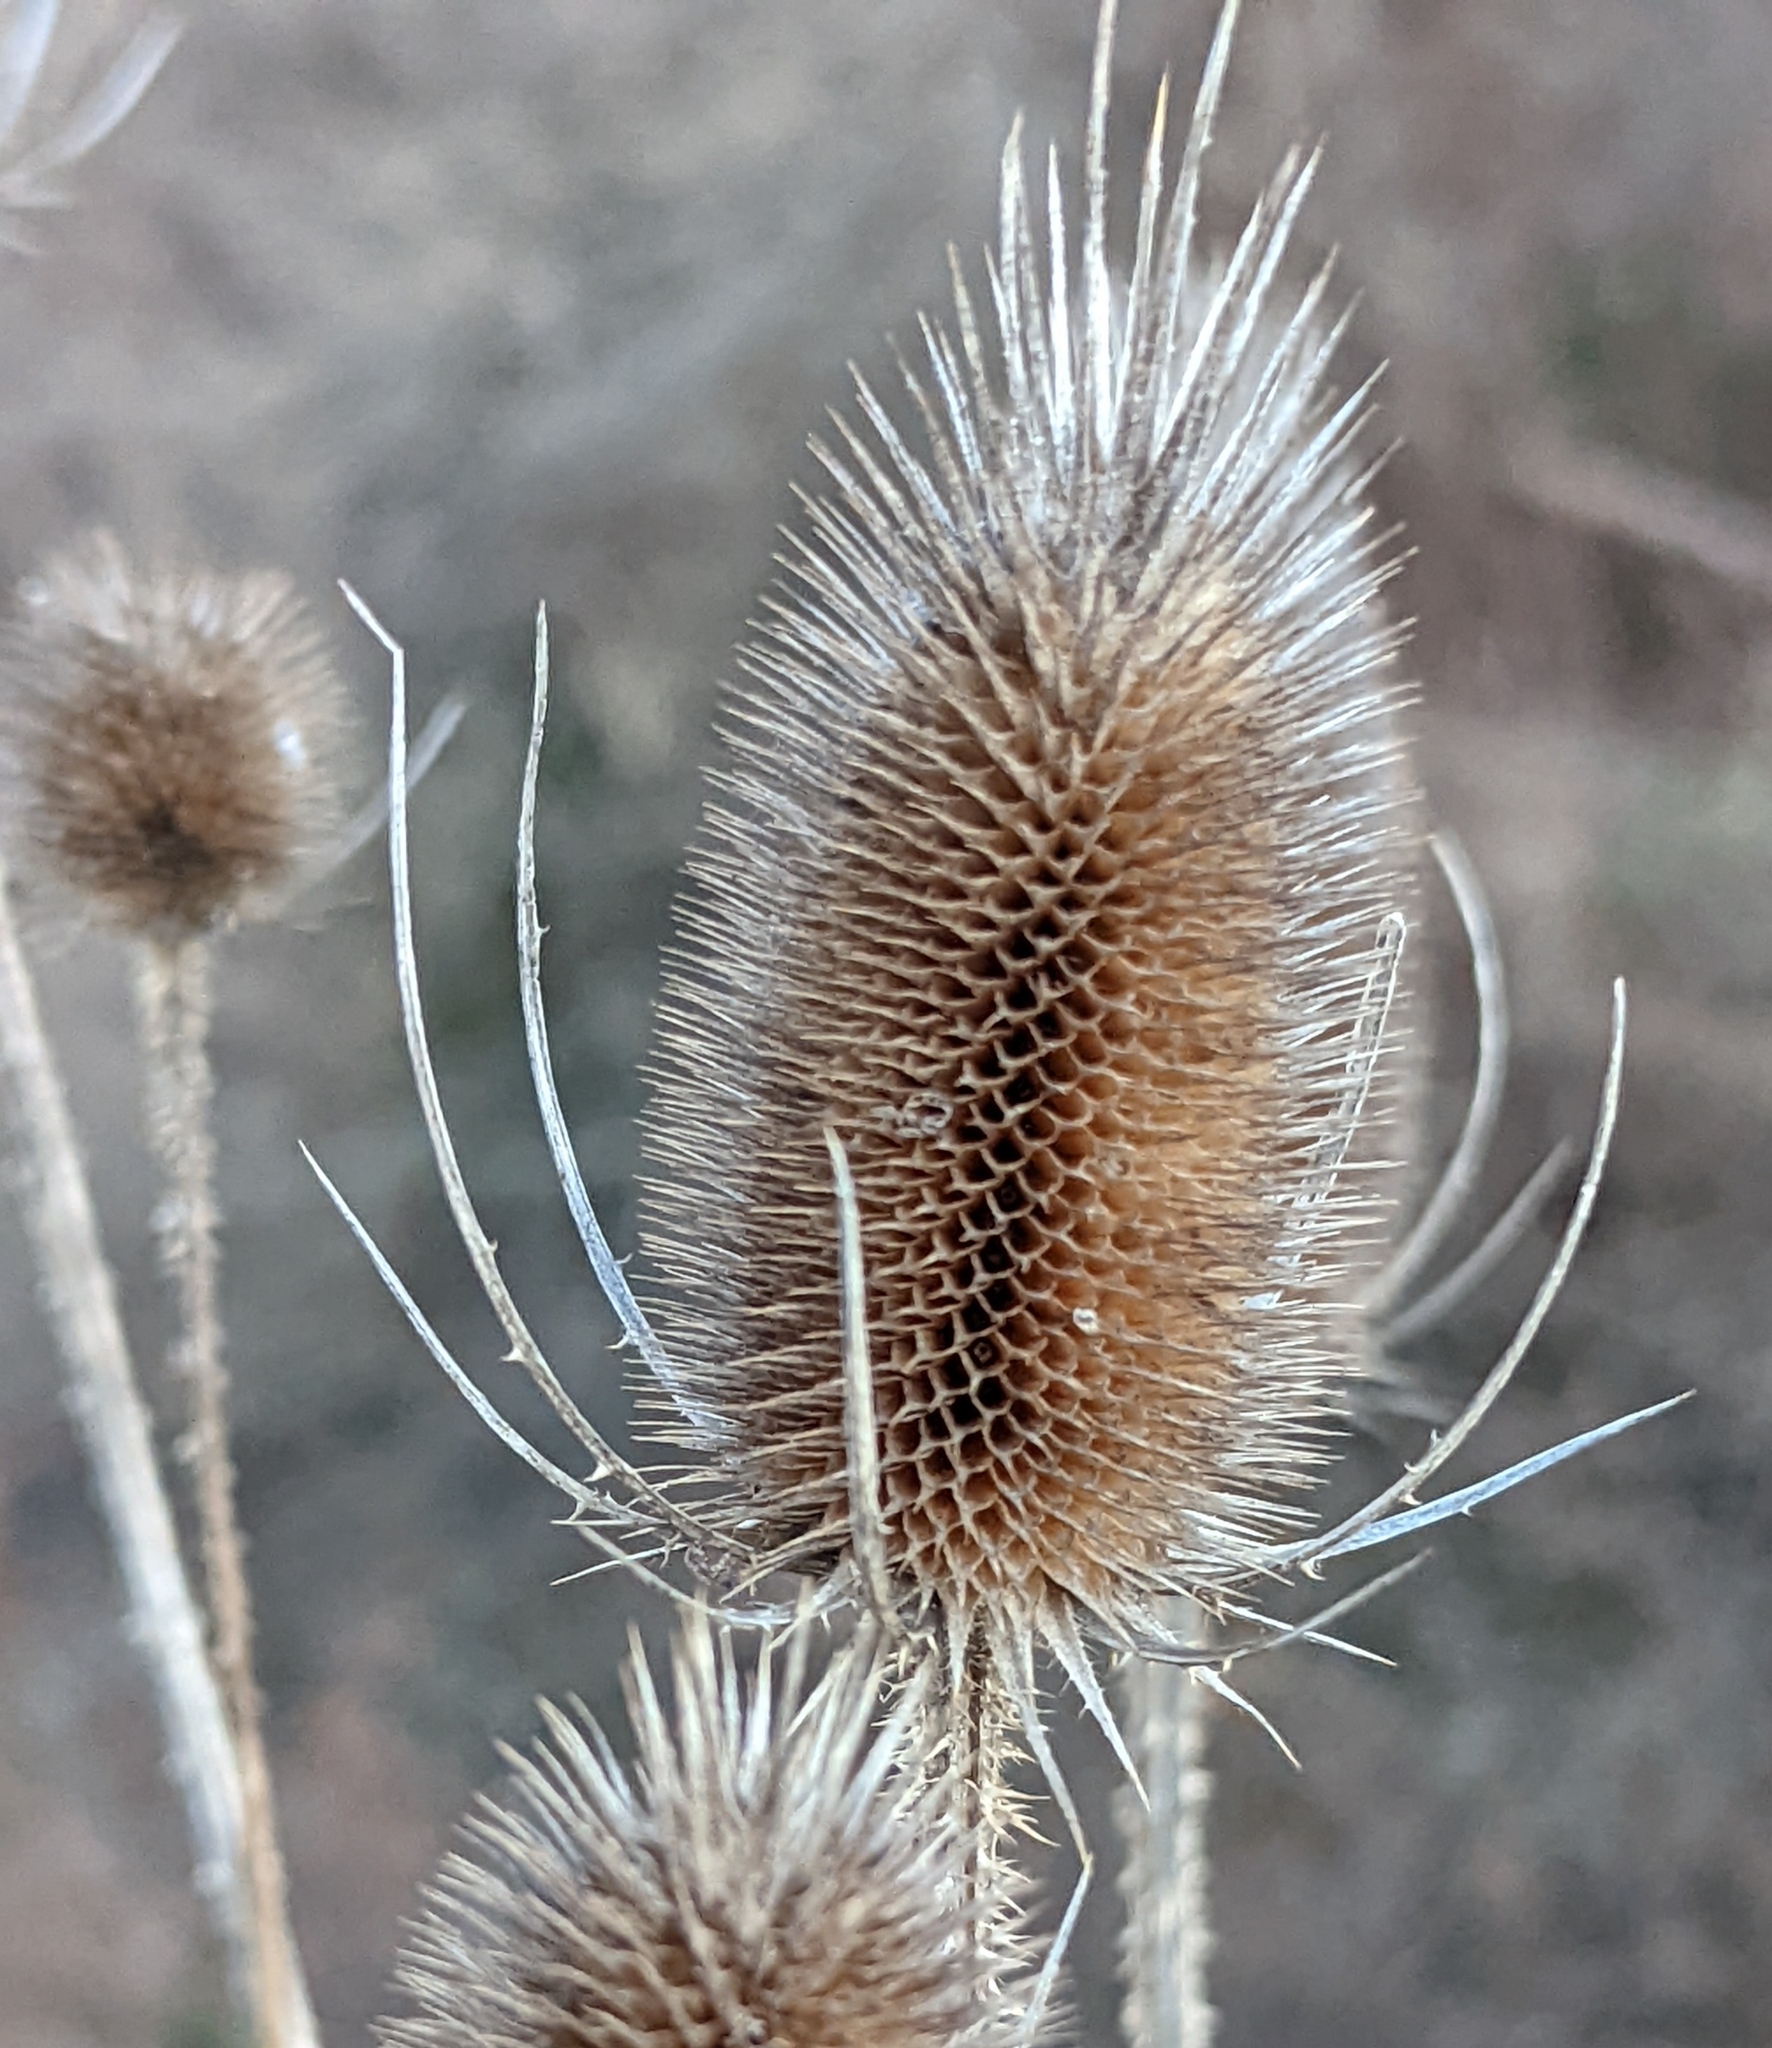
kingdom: Plantae
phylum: Tracheophyta
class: Magnoliopsida
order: Dipsacales
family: Caprifoliaceae
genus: Dipsacus
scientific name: Dipsacus fullonum
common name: Teasel
